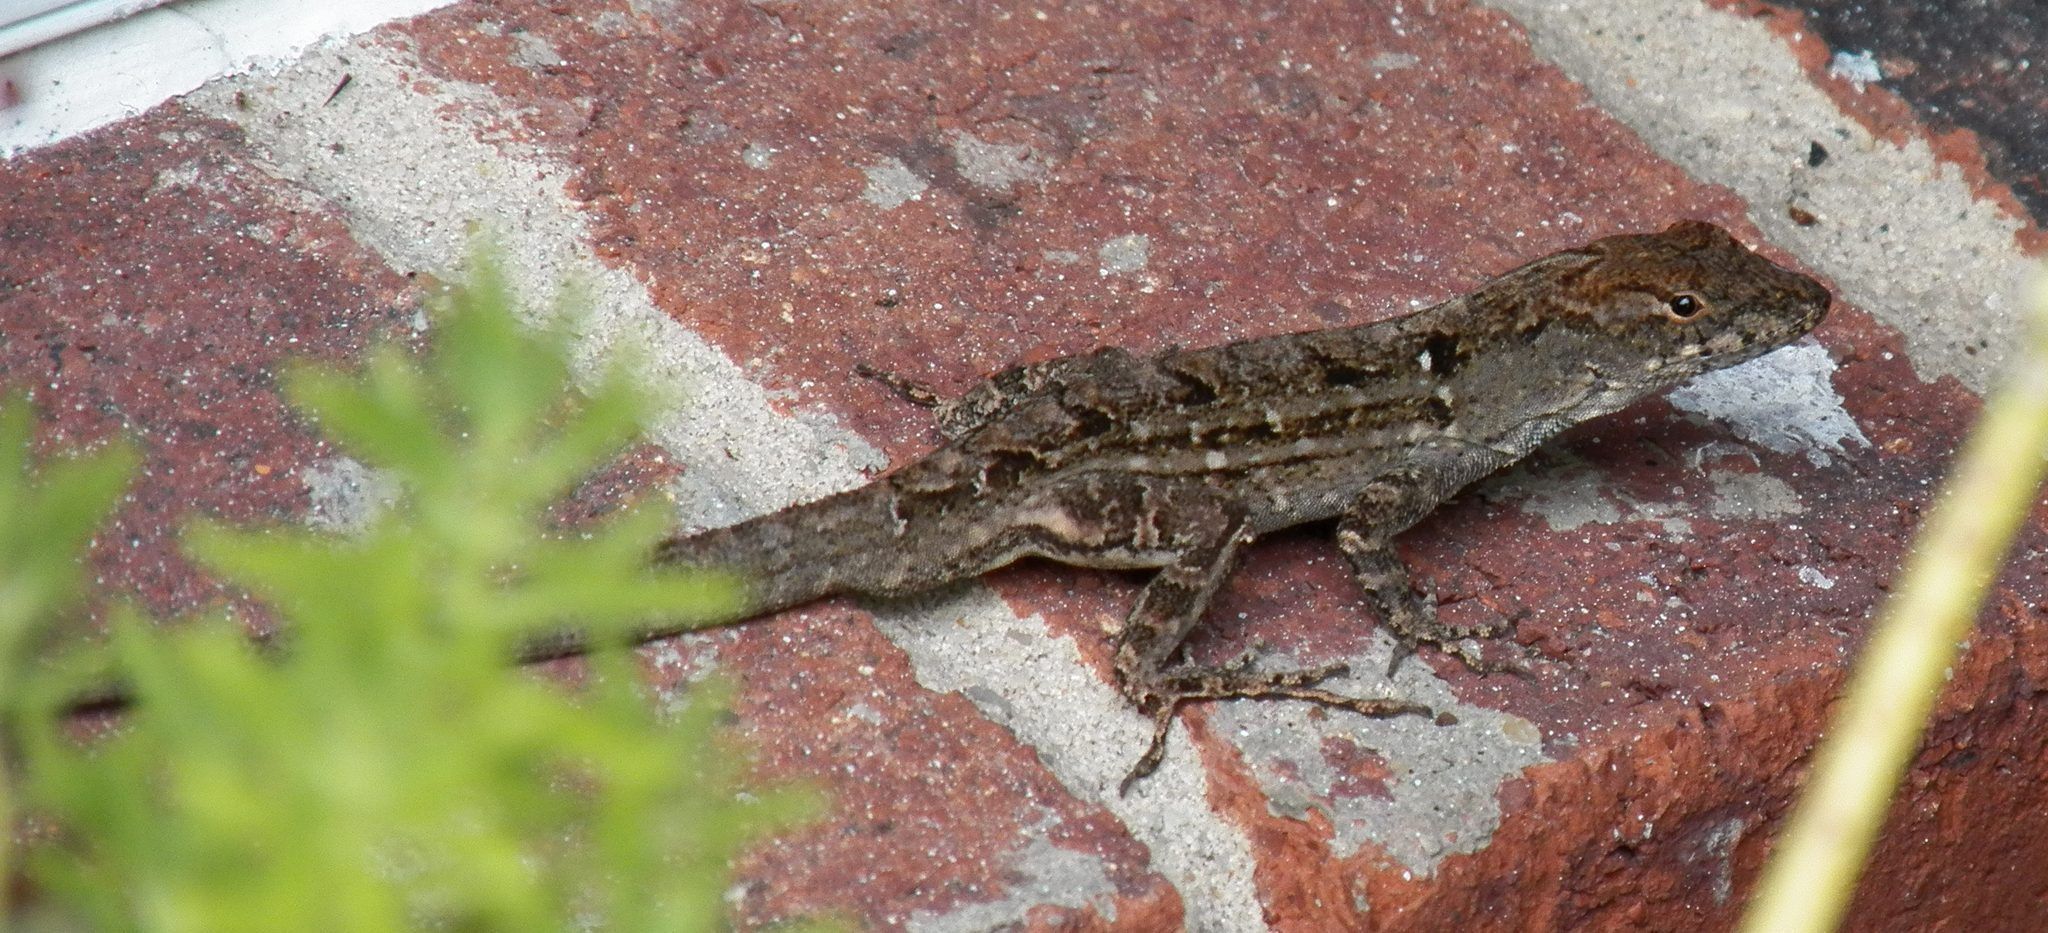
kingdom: Animalia
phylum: Chordata
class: Squamata
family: Dactyloidae
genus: Anolis
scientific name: Anolis sagrei
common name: Brown anole
